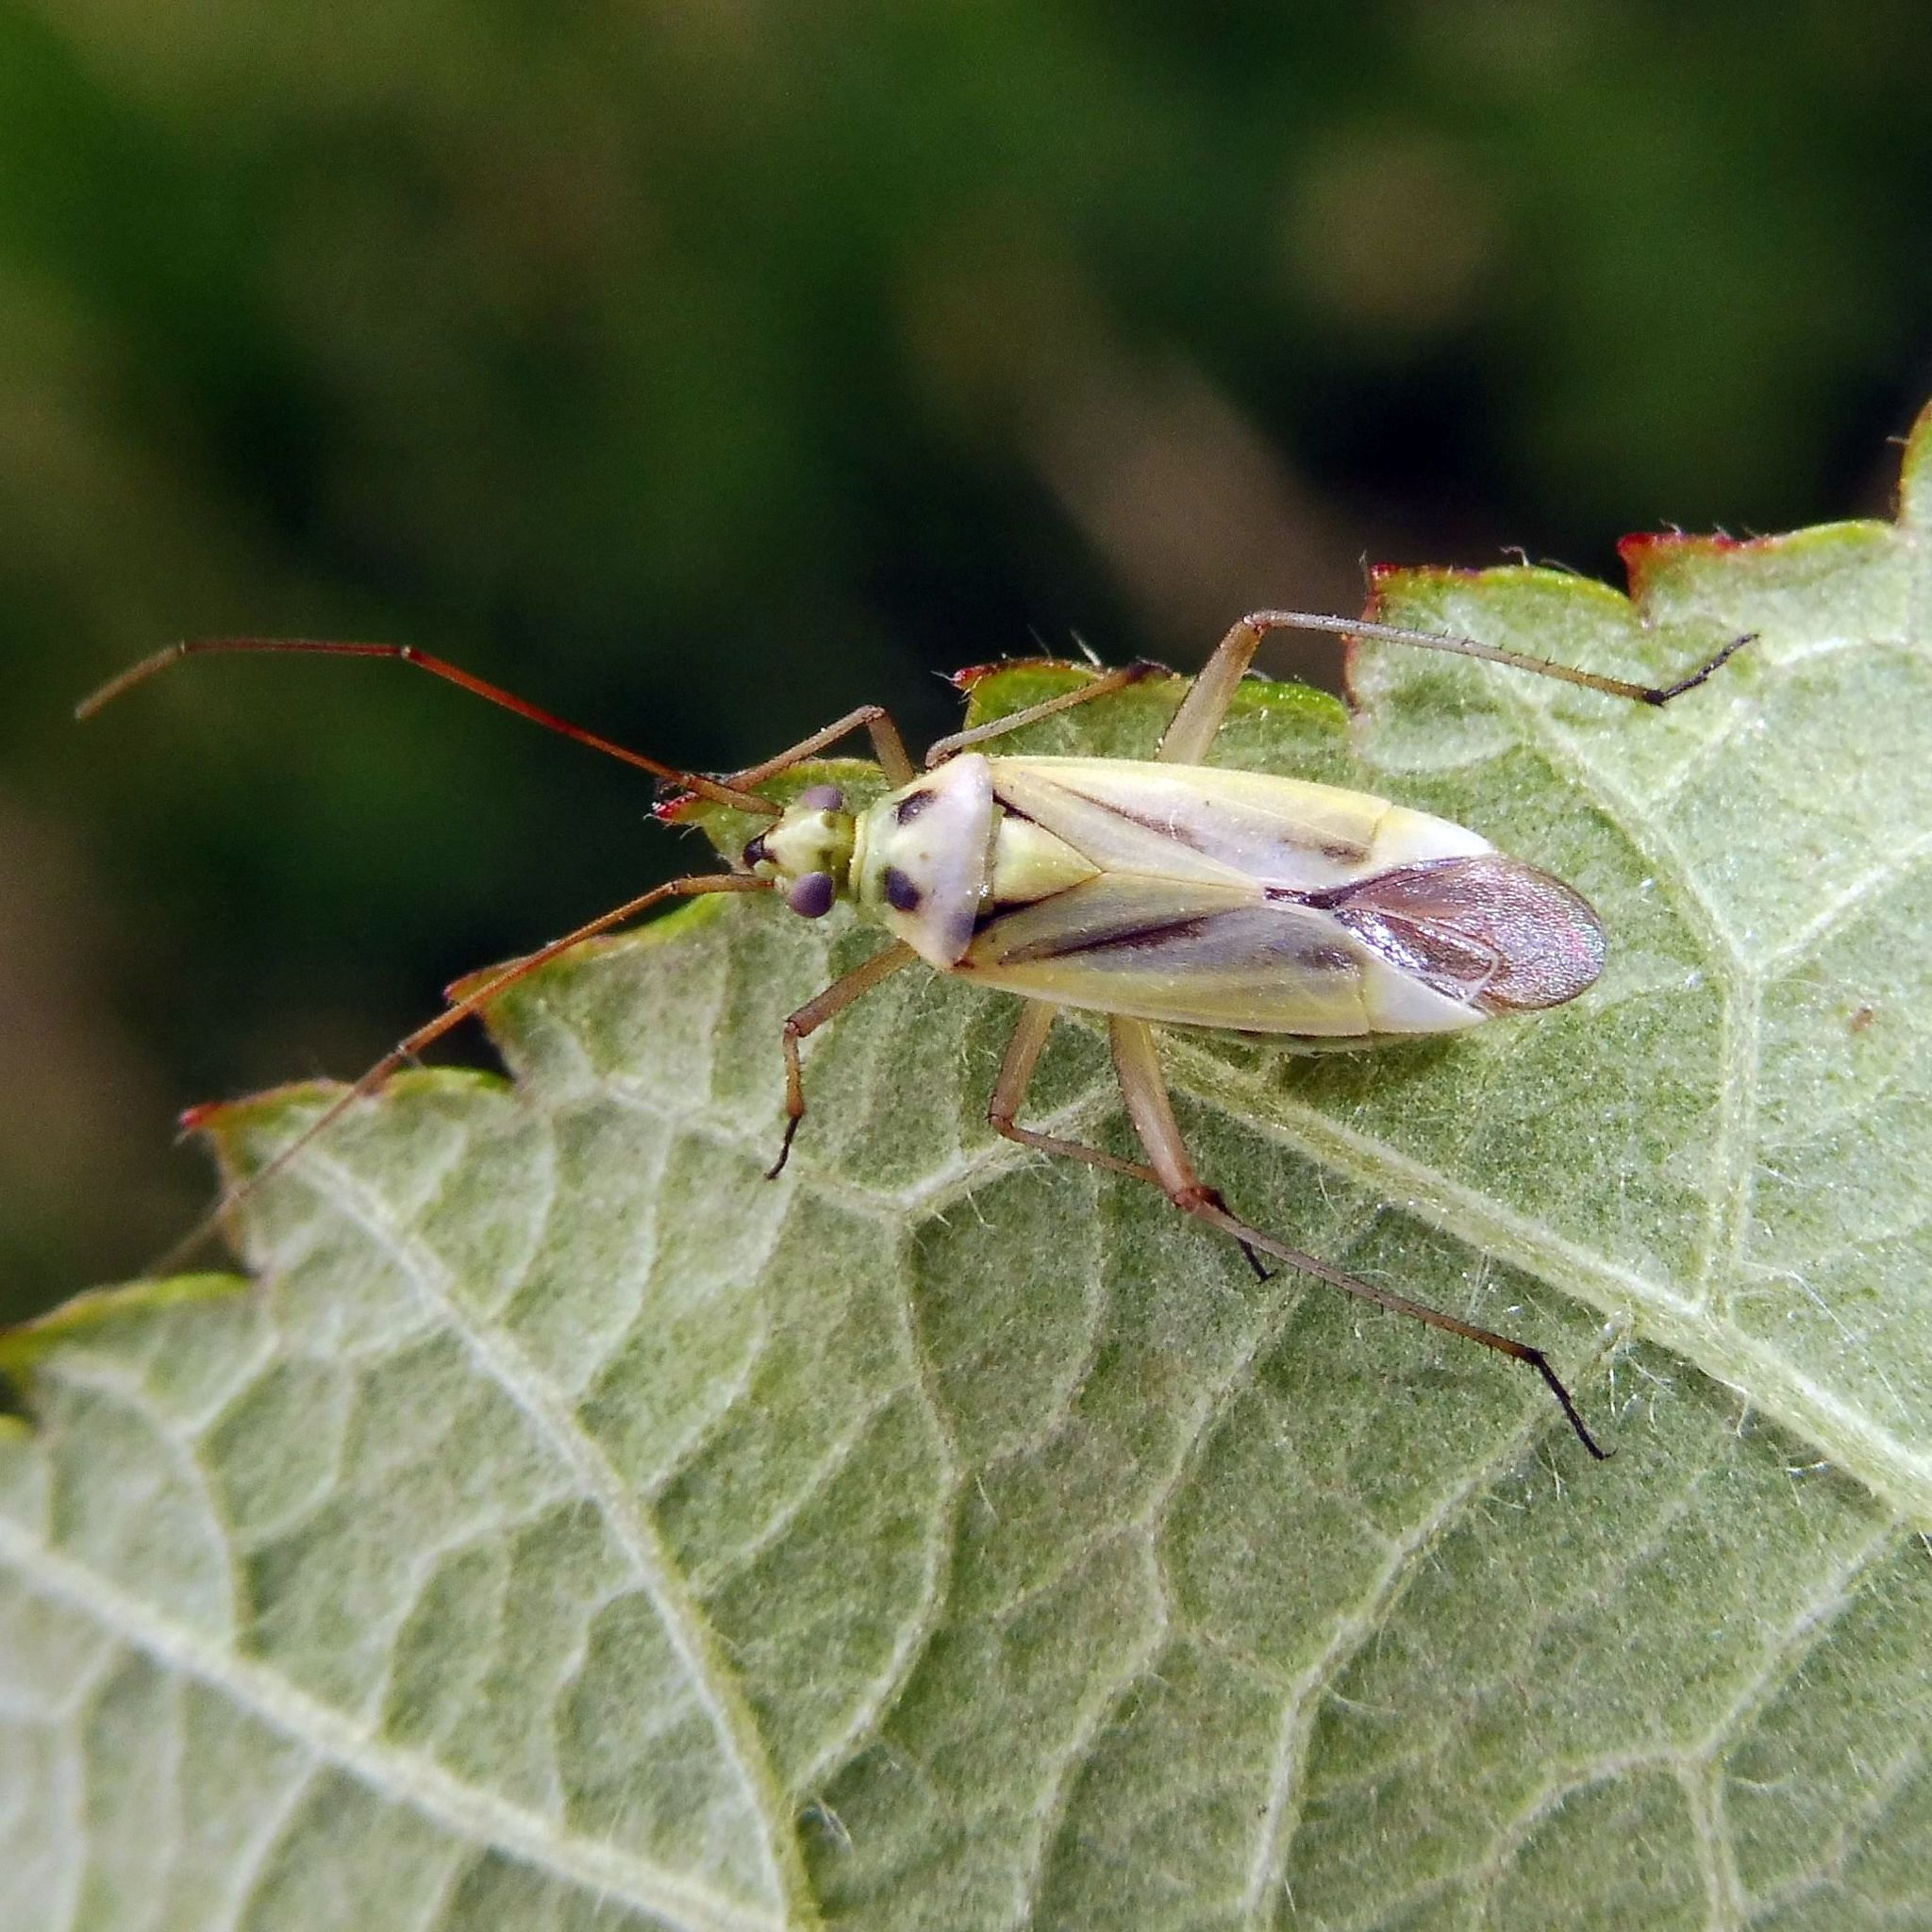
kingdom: Animalia
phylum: Arthropoda
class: Insecta
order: Hemiptera
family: Miridae
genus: Stenotus
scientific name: Stenotus binotatus
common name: Plant bug
